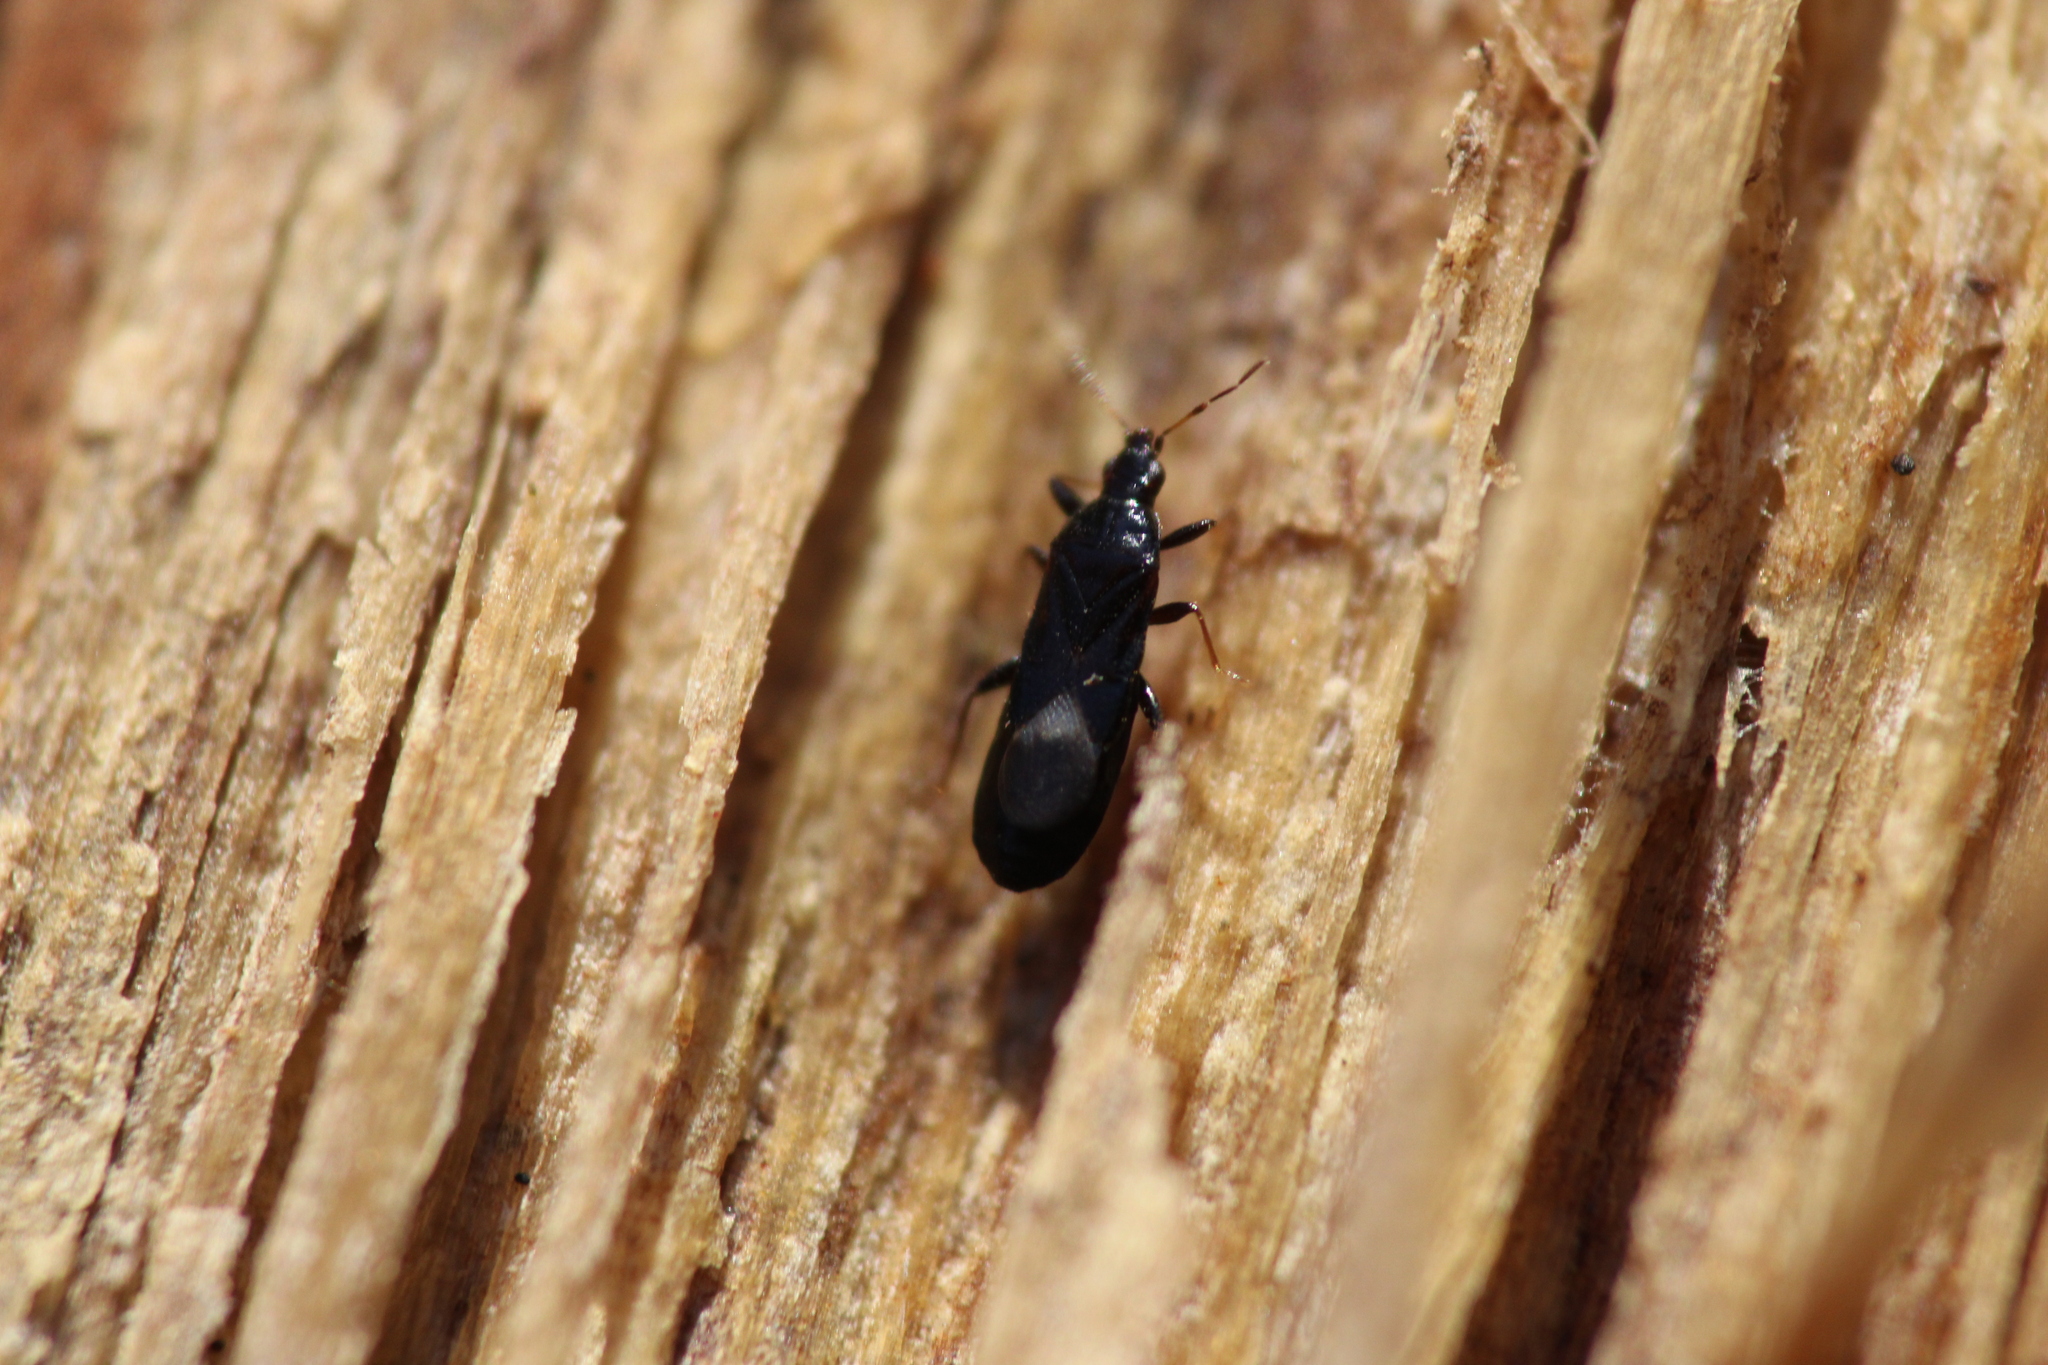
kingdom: Animalia
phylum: Arthropoda
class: Insecta
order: Hemiptera
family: Anthocoridae
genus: Dufouriellus
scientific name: Dufouriellus ater
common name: Minute pirate bug
